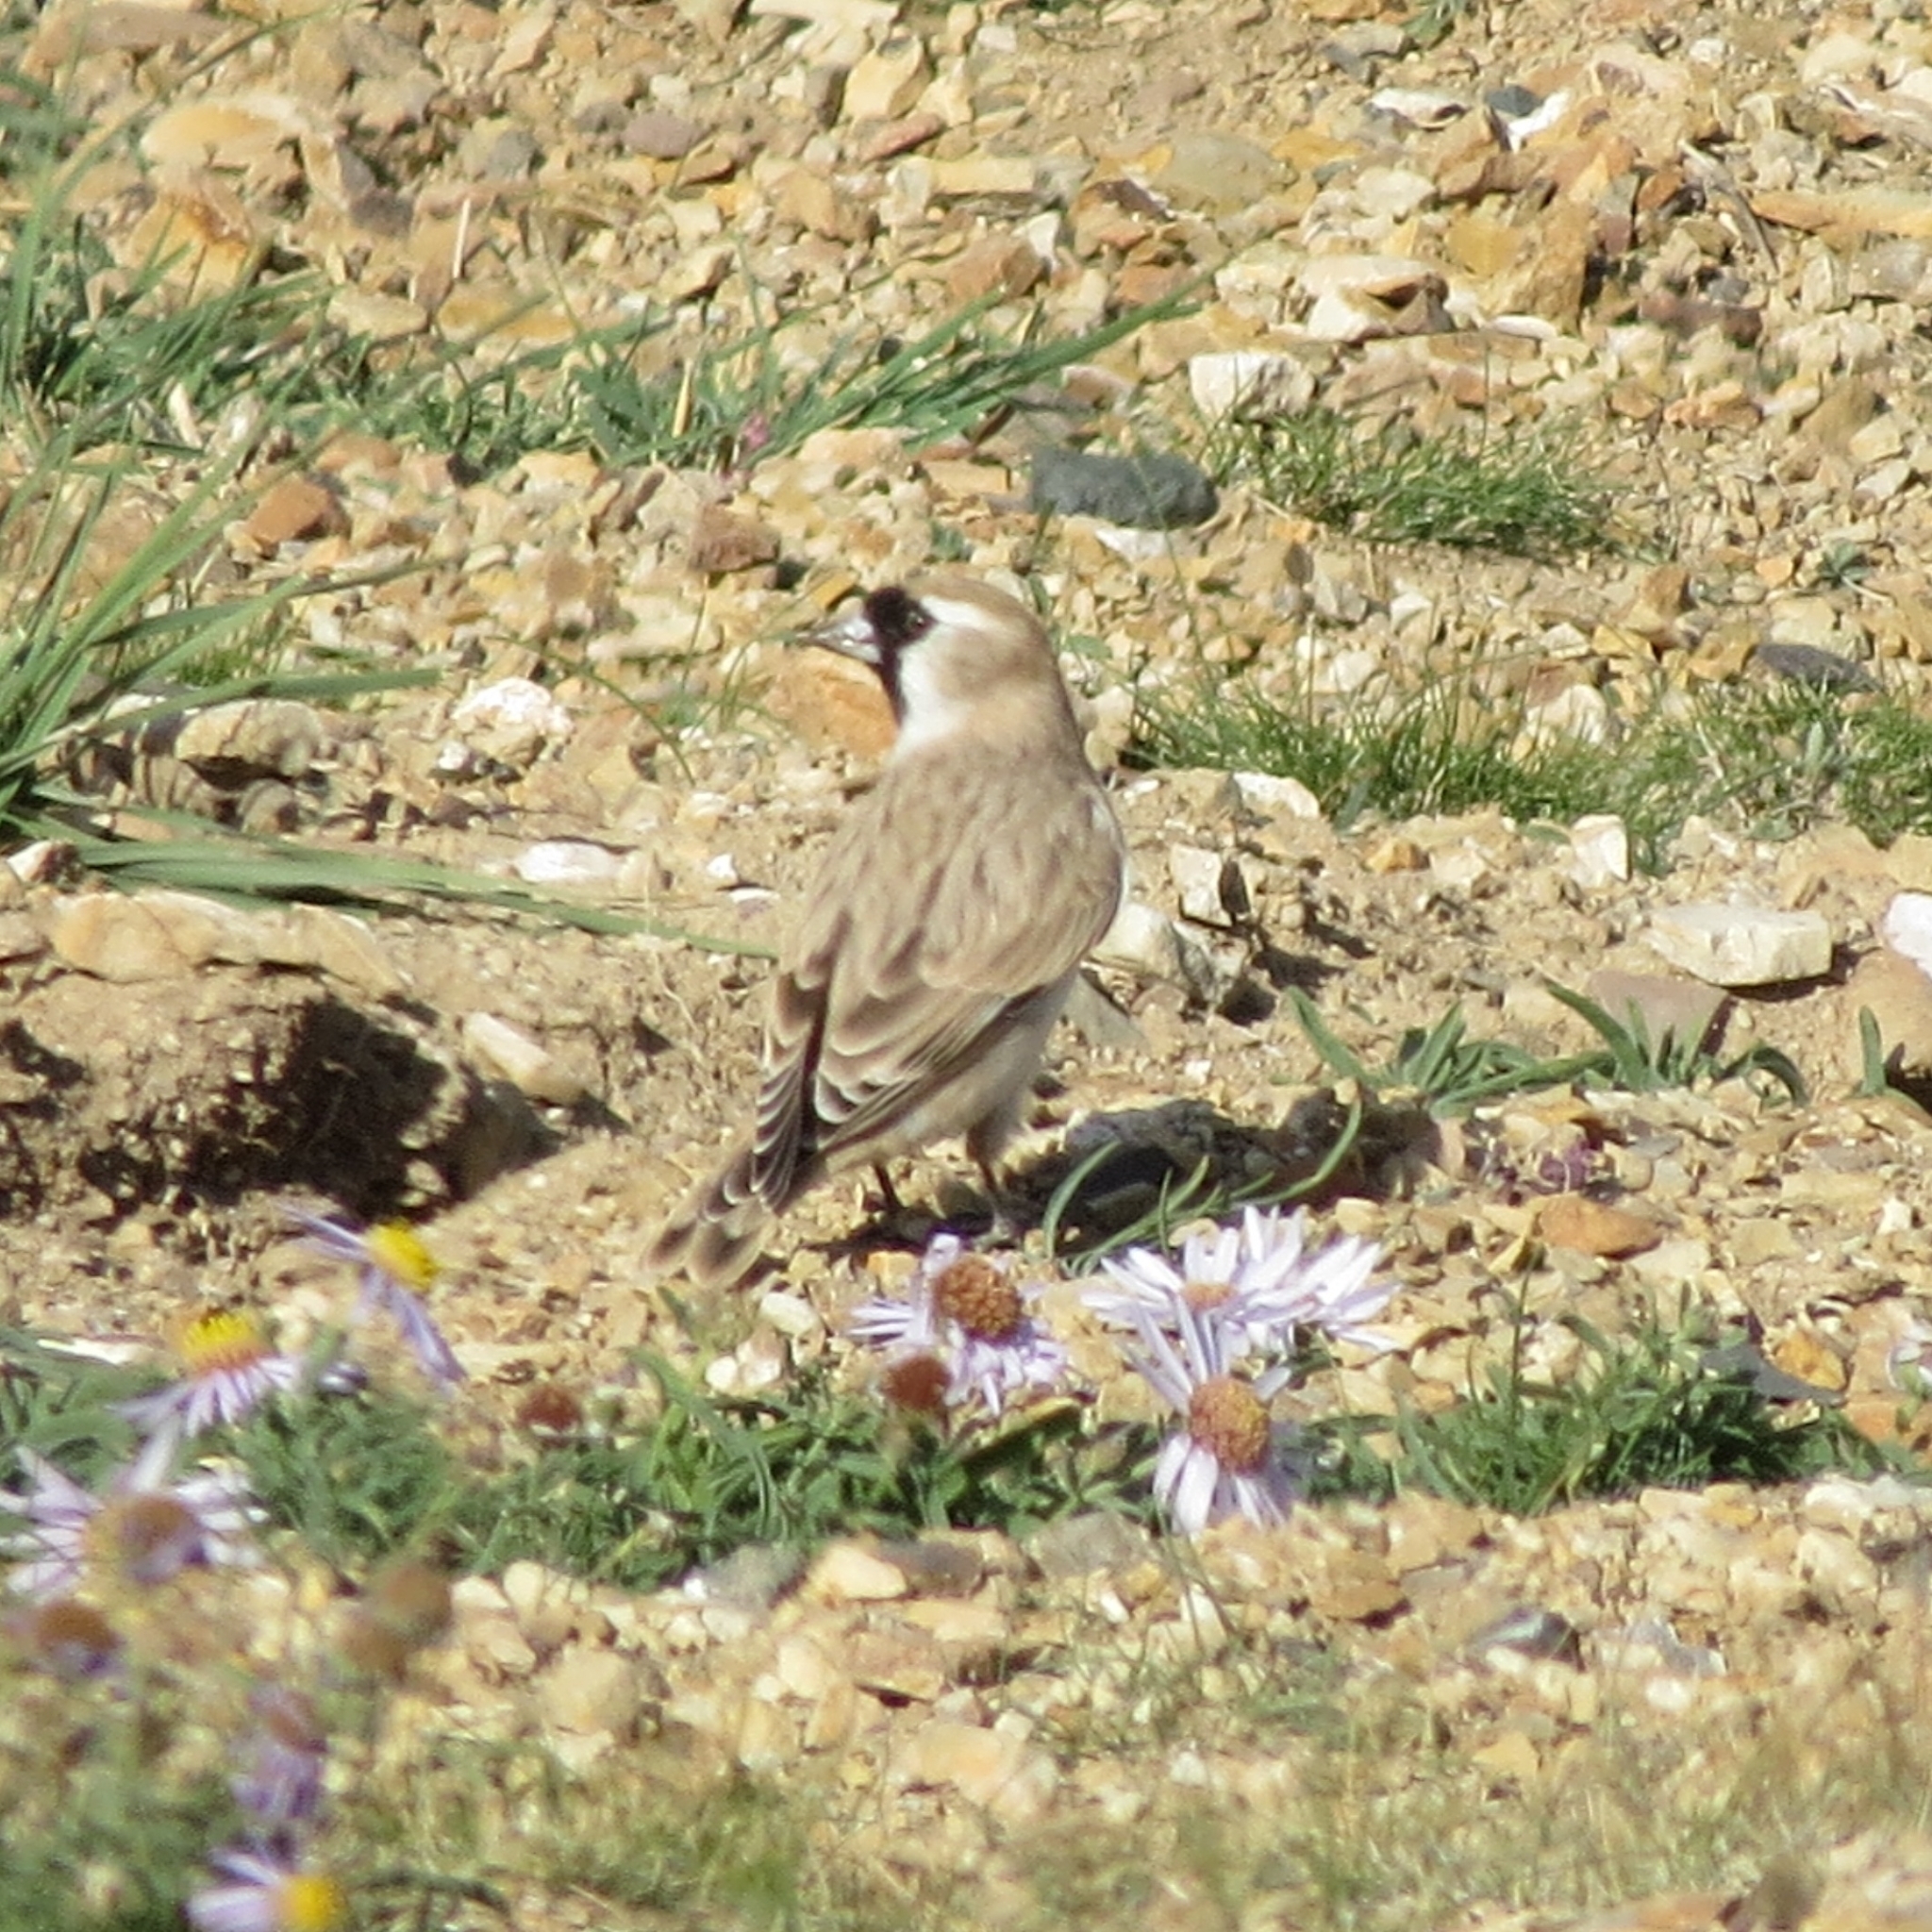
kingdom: Animalia
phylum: Chordata
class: Aves
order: Passeriformes
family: Passeridae
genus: Pyrgilauda
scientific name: Pyrgilauda davidiana
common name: Pere david's snowfinch
